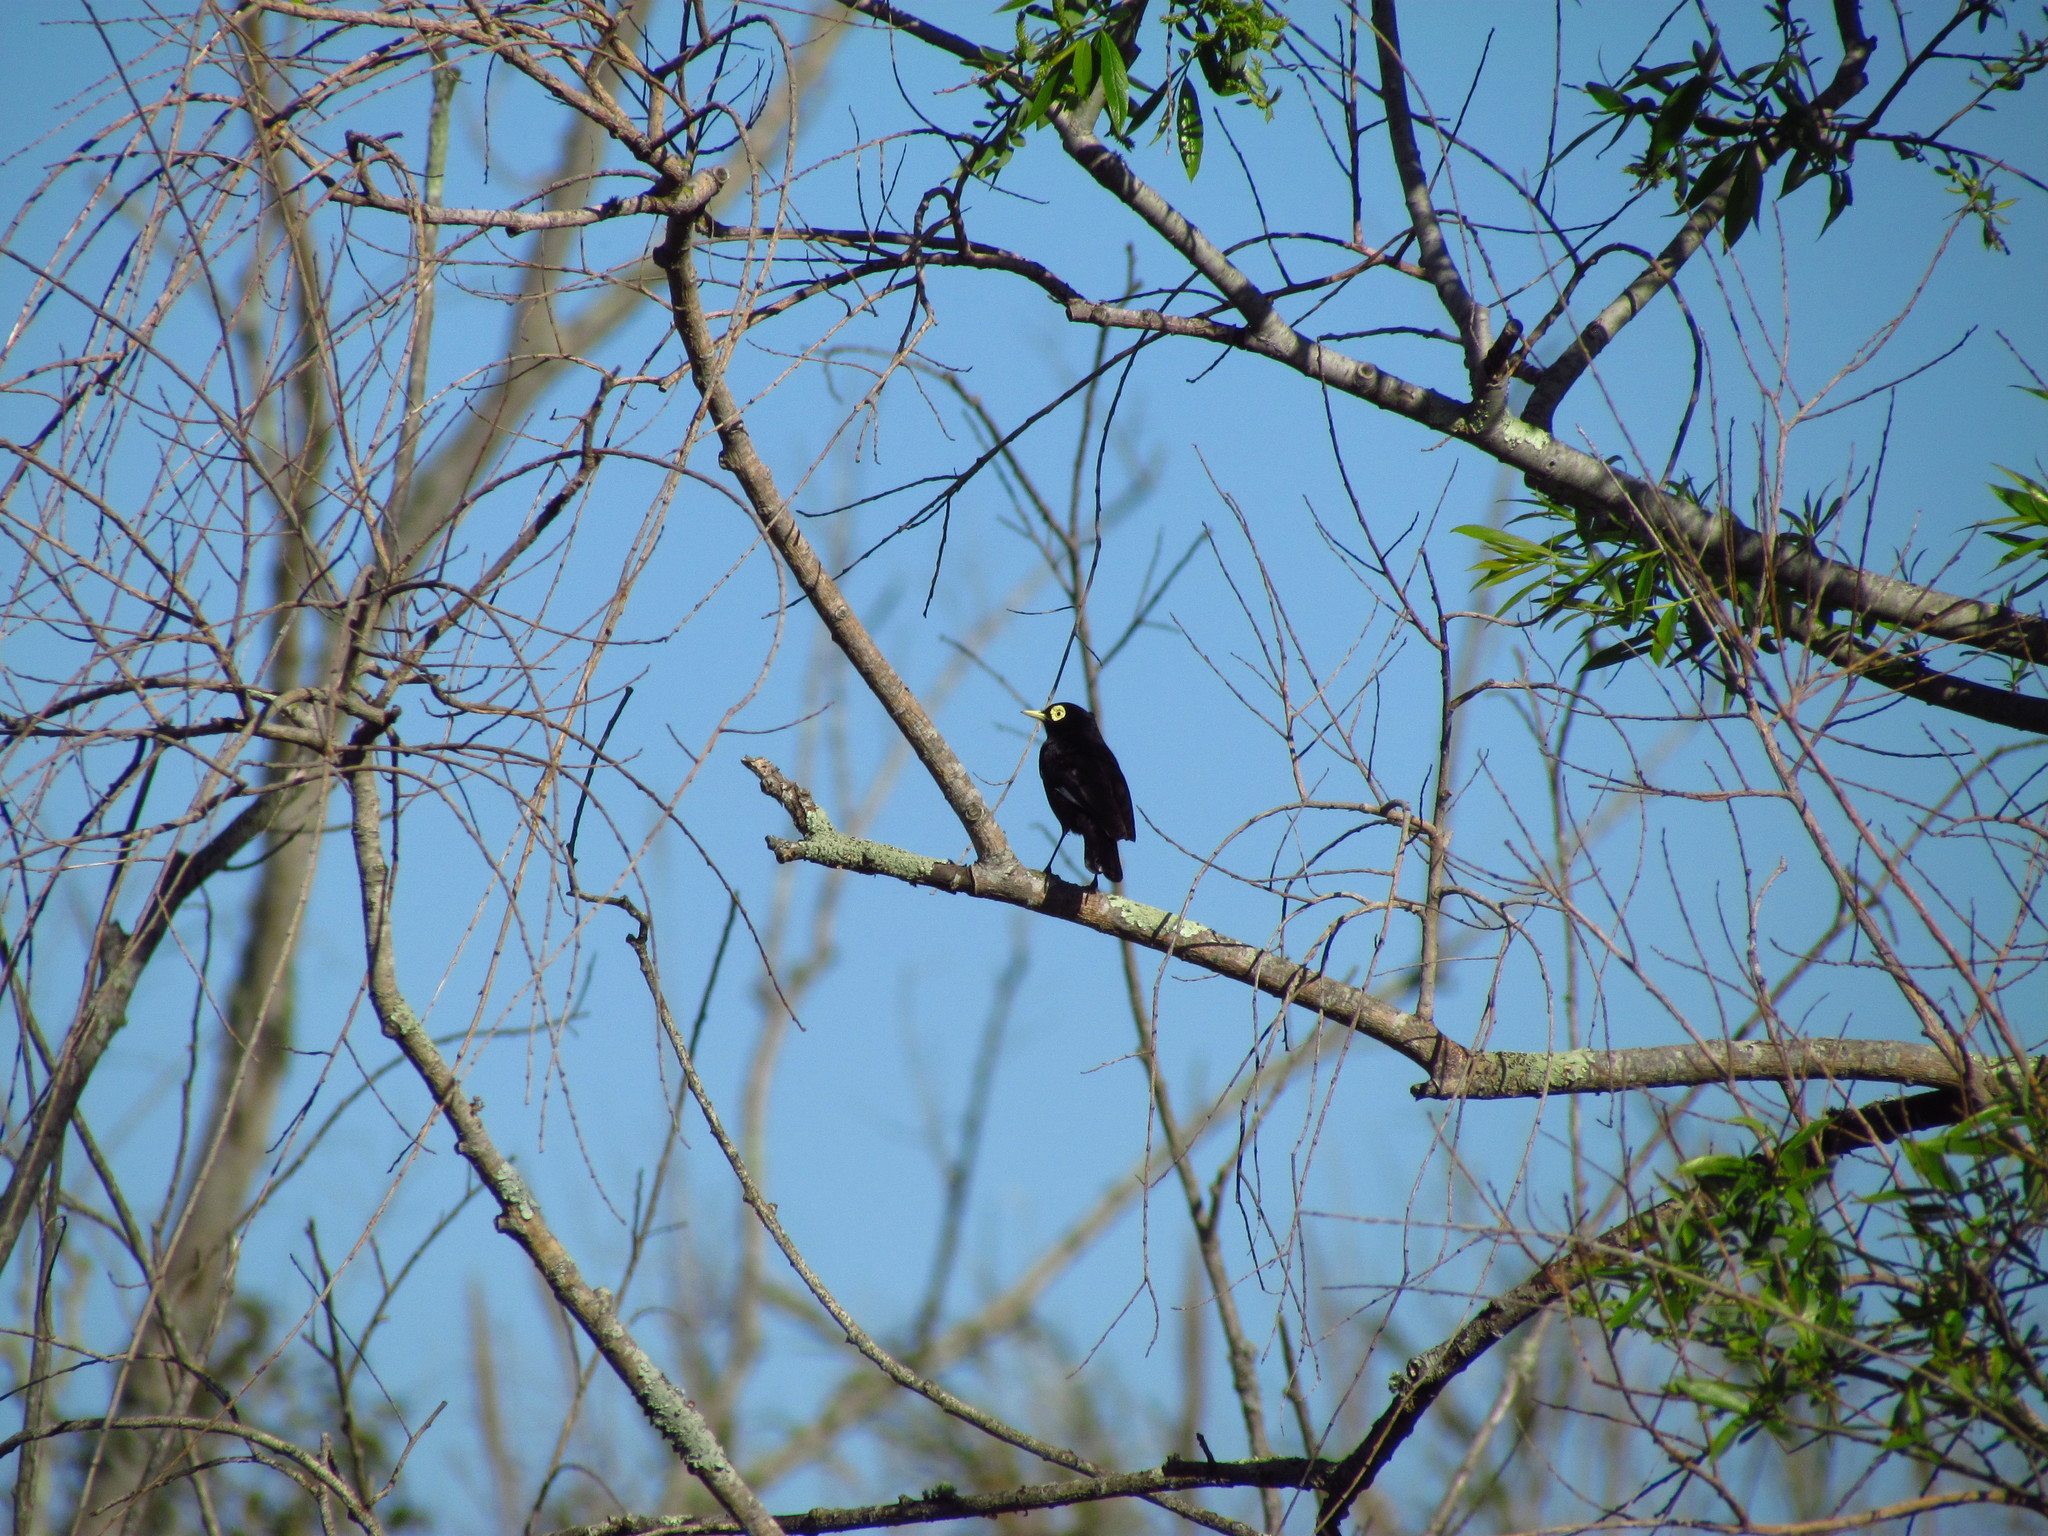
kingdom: Animalia
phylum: Chordata
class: Aves
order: Passeriformes
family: Tyrannidae
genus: Hymenops
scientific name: Hymenops perspicillatus
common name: Spectacled tyrant
